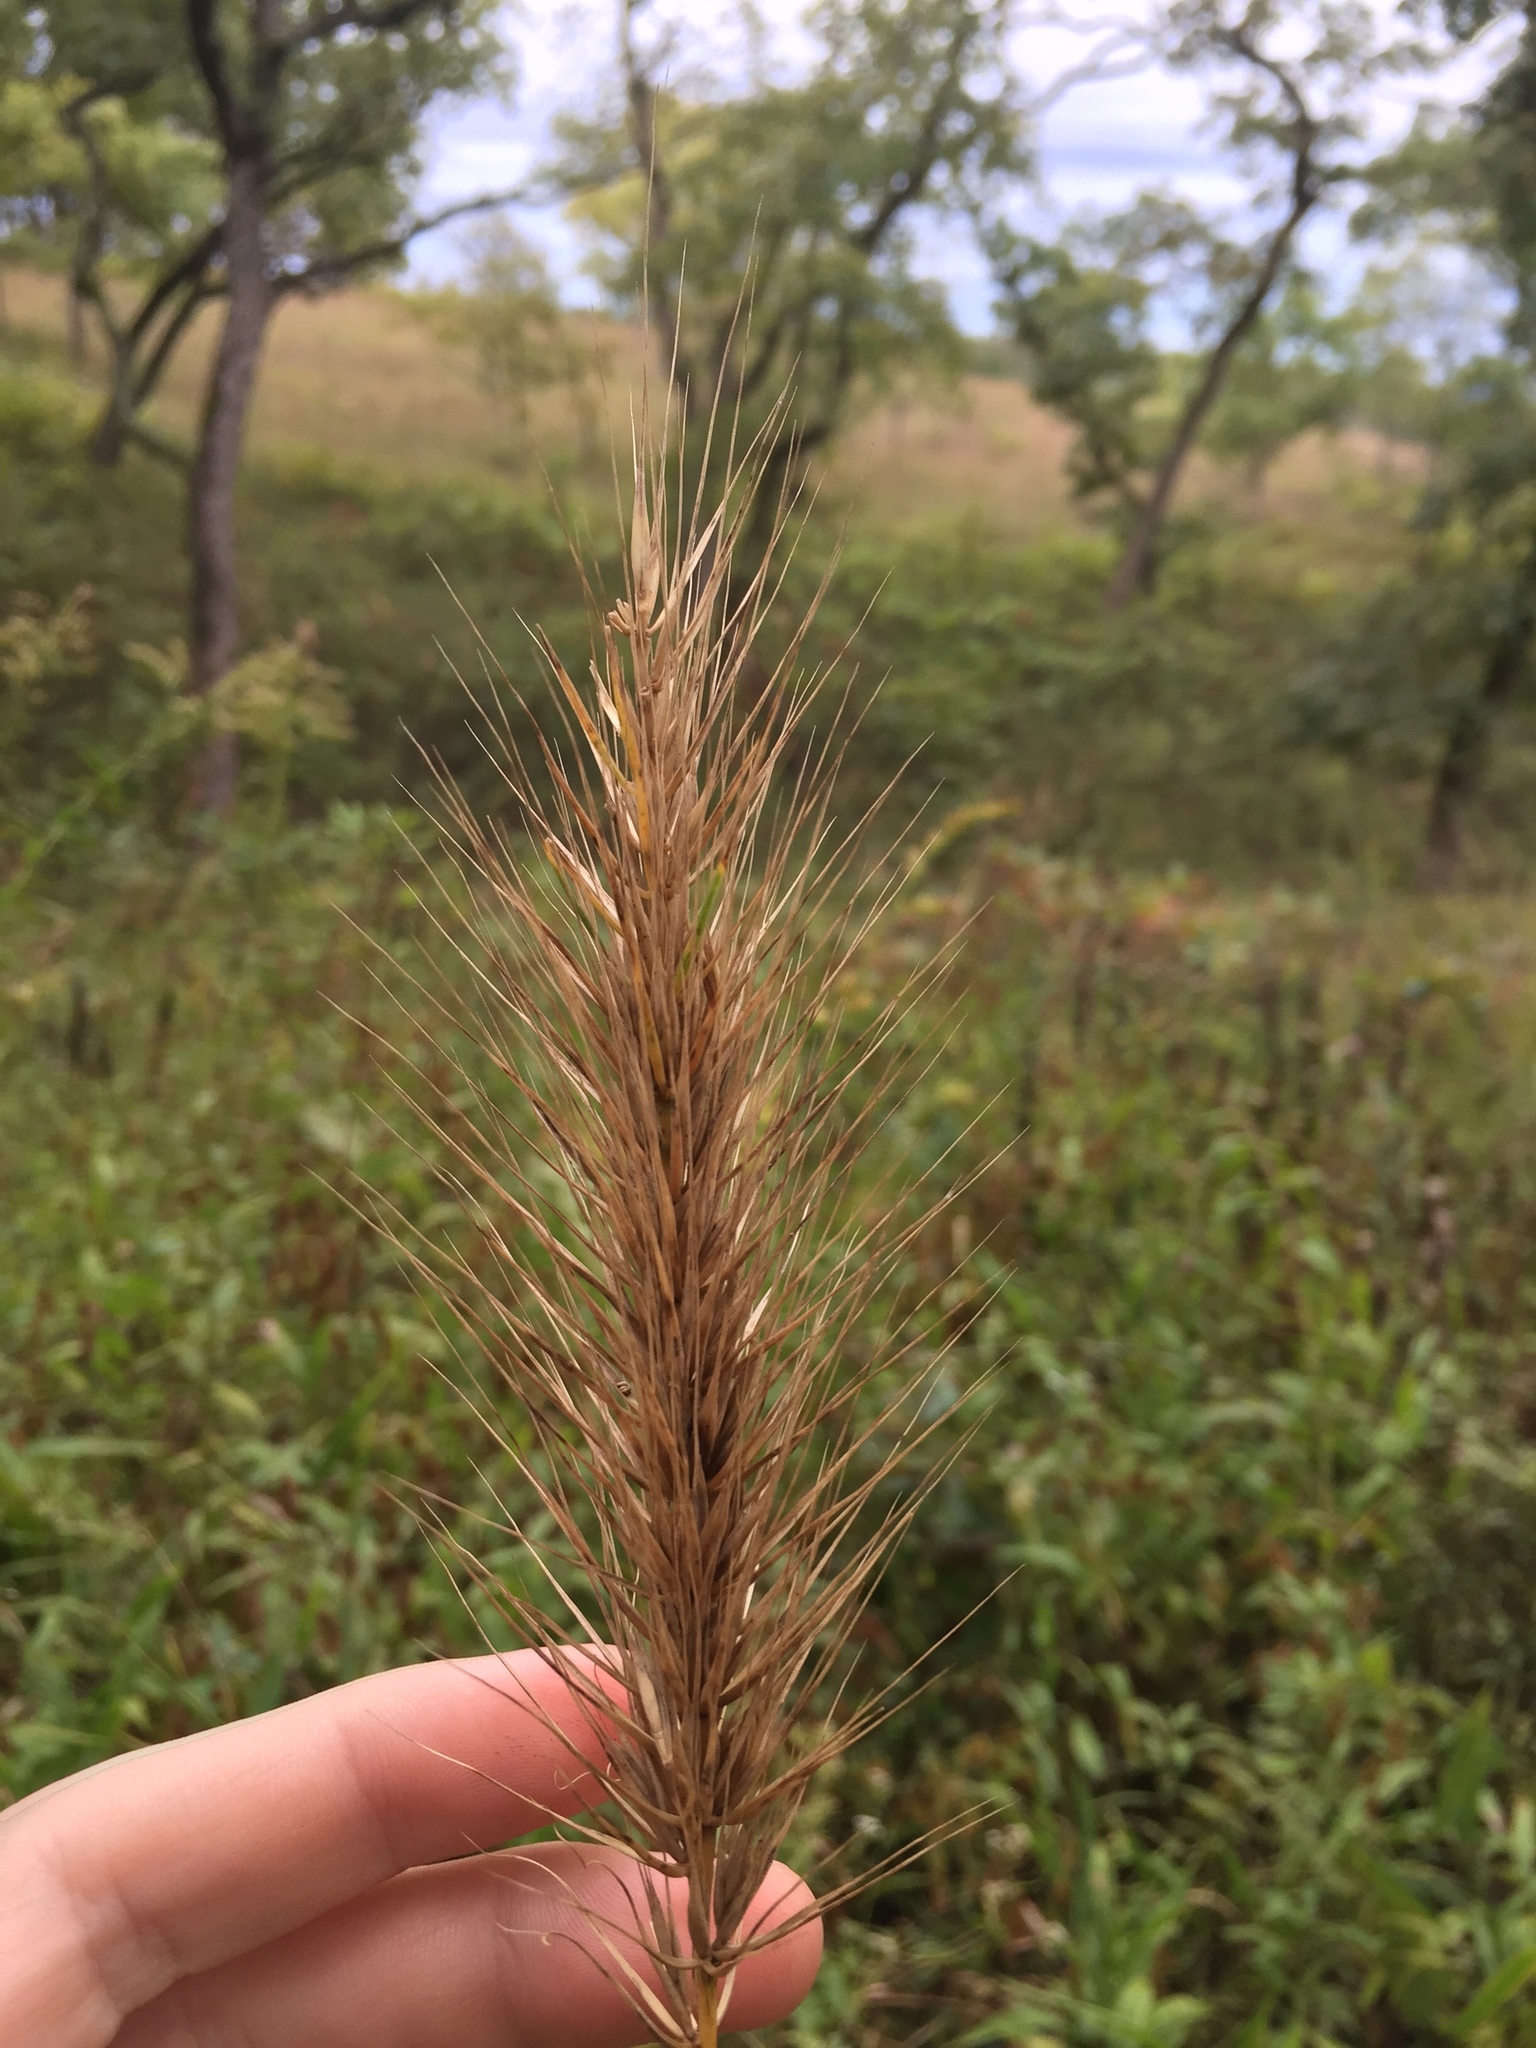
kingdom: Plantae
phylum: Tracheophyta
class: Liliopsida
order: Poales
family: Poaceae
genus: Elymus
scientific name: Elymus virginicus
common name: Common eastern wildrye
